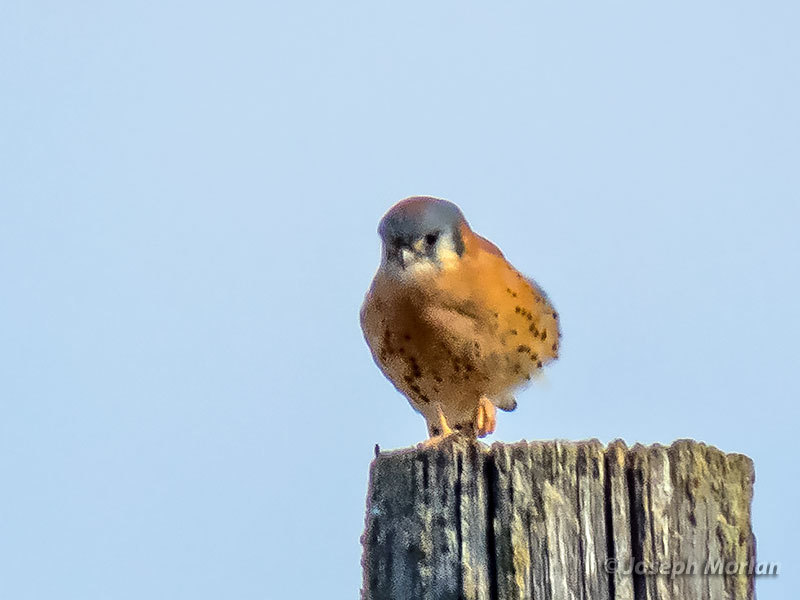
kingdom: Animalia
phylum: Chordata
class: Aves
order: Falconiformes
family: Falconidae
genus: Falco
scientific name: Falco sparverius
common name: American kestrel
